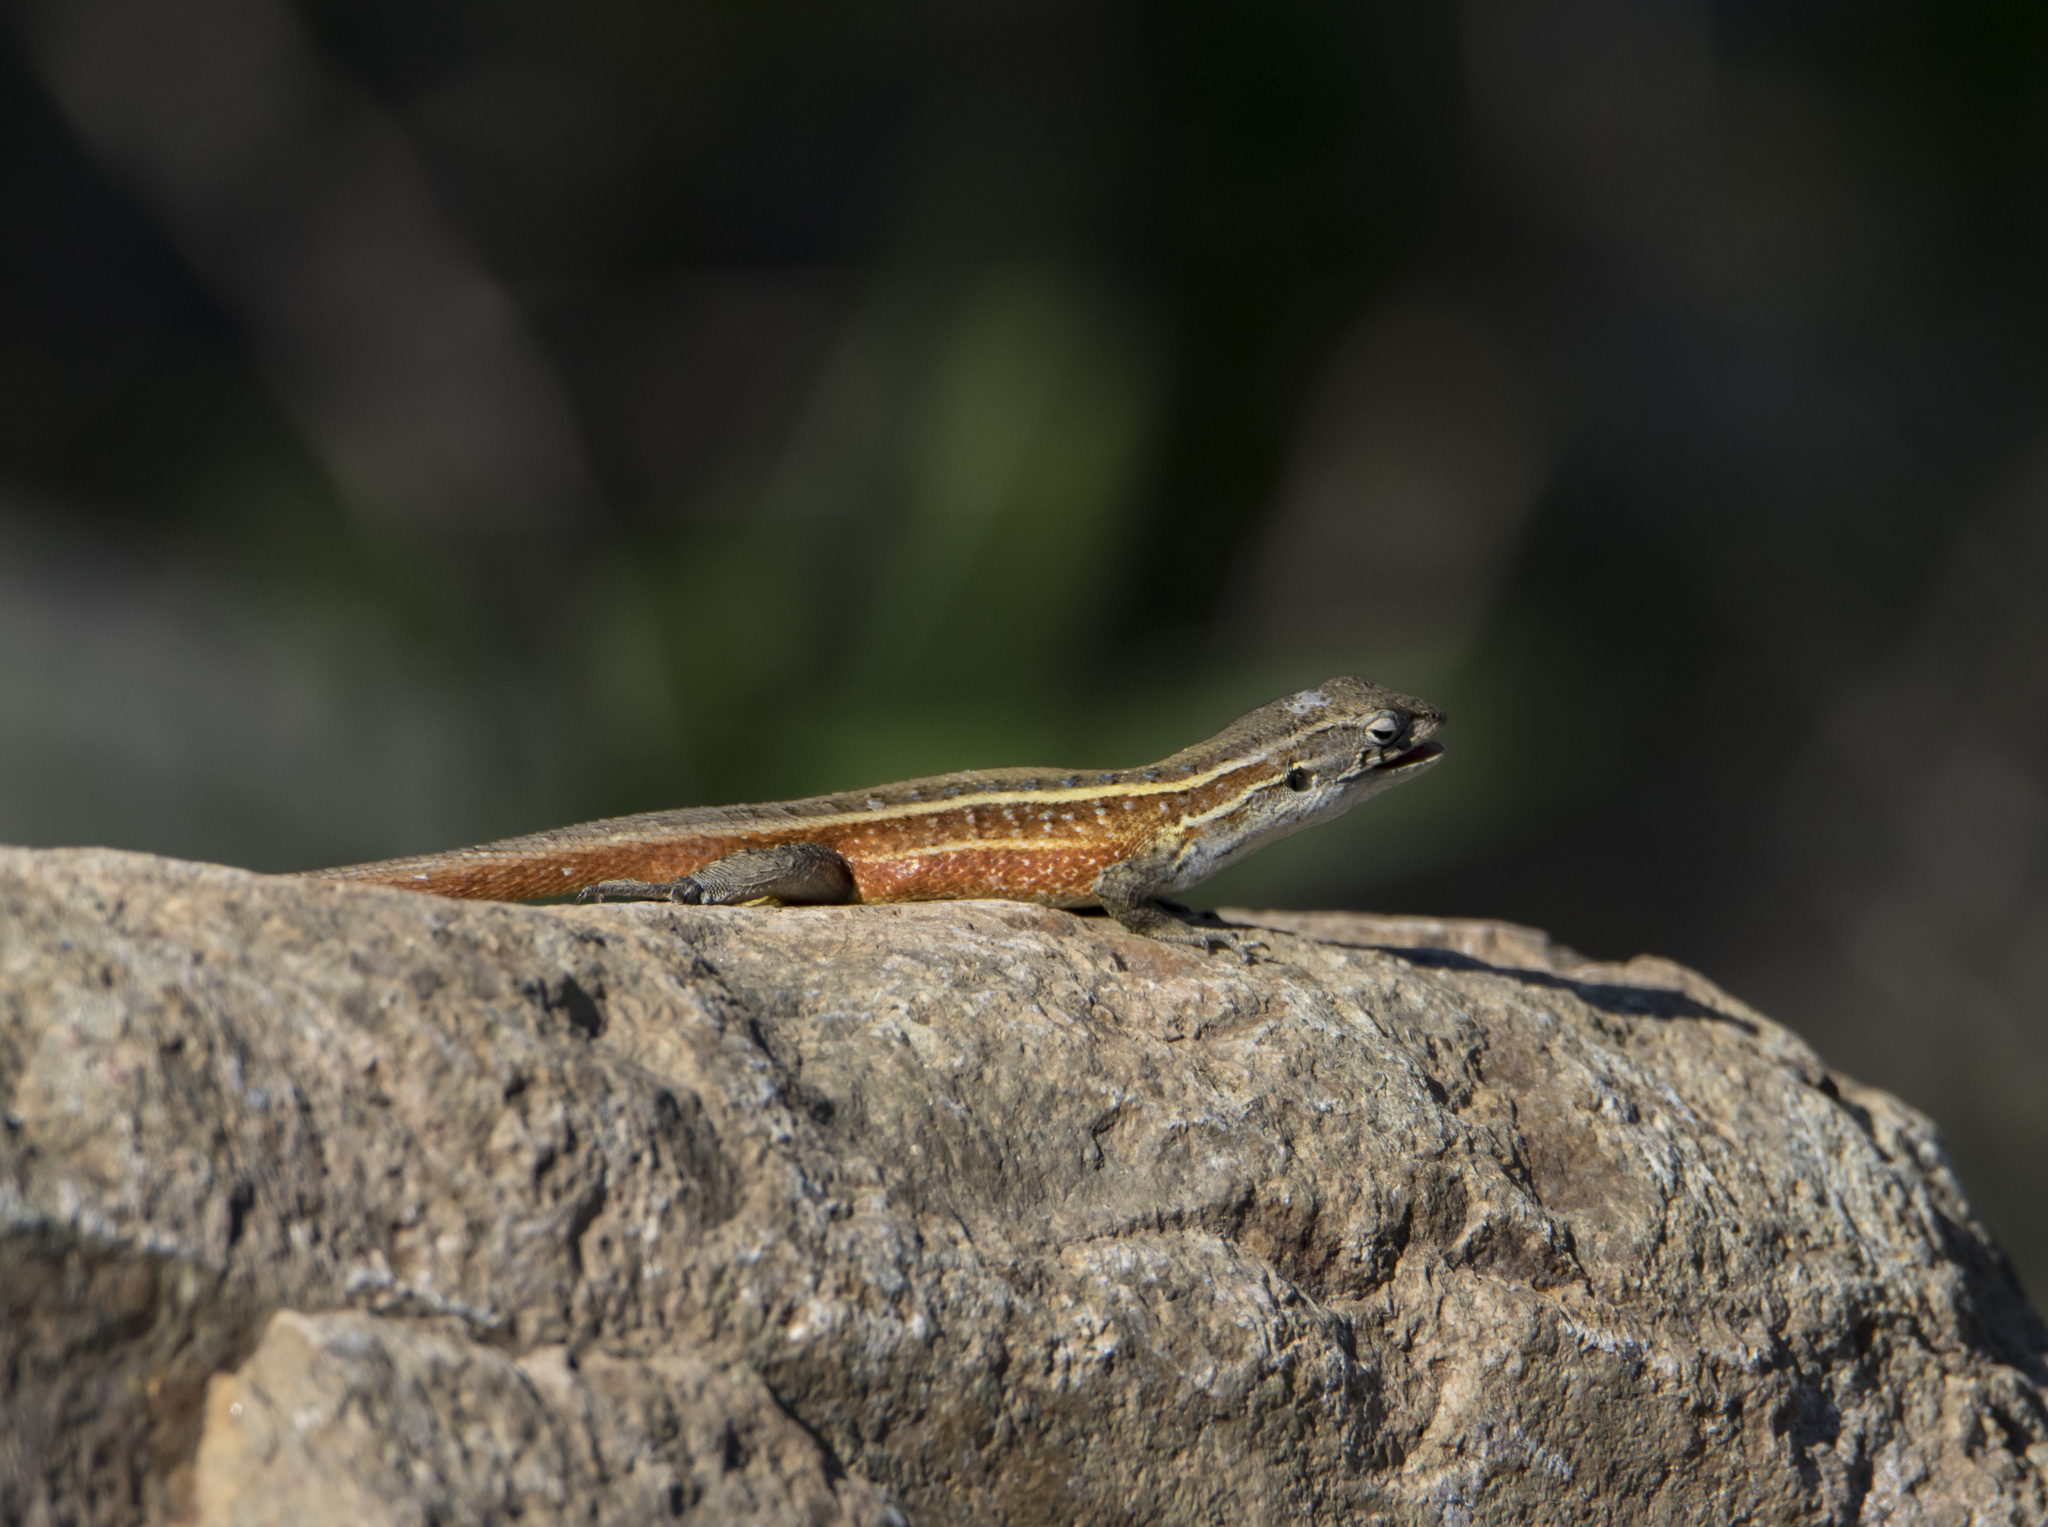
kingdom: Animalia
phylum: Chordata
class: Squamata
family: Liolaemidae
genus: Liolaemus
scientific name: Liolaemus lemniscatus
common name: Wreath tree iguana
